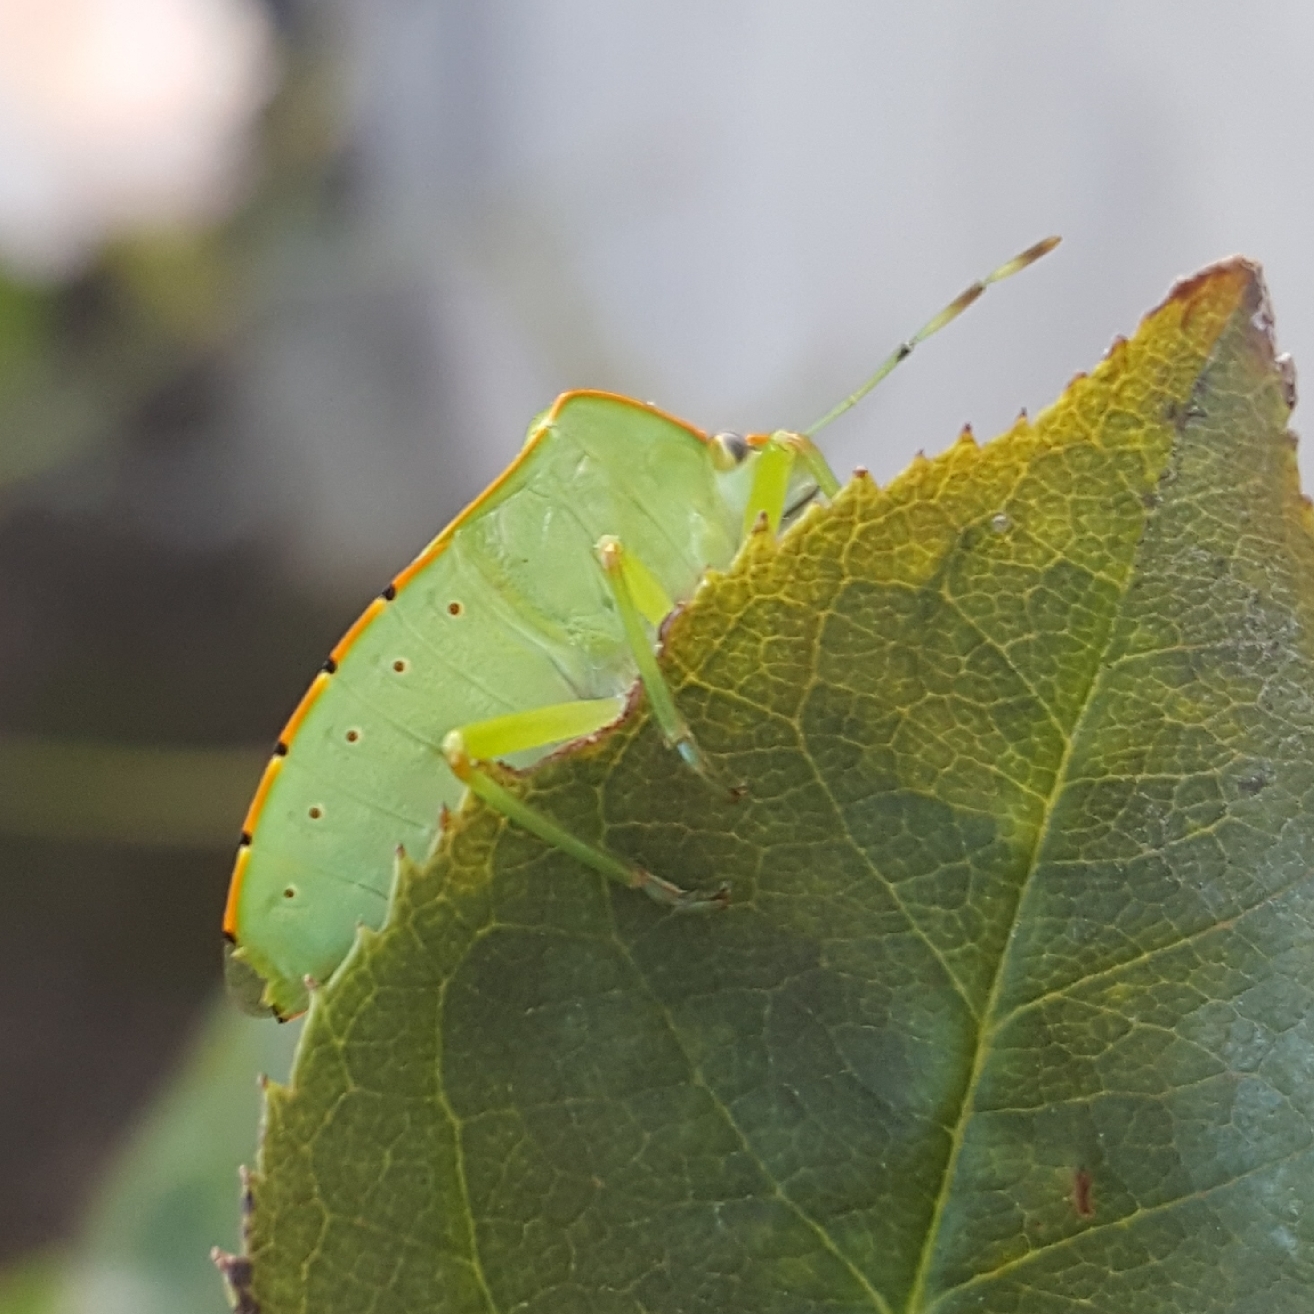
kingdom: Animalia
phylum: Arthropoda
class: Insecta
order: Hemiptera
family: Pentatomidae
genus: Chinavia
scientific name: Chinavia hilaris
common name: Green stink bug
